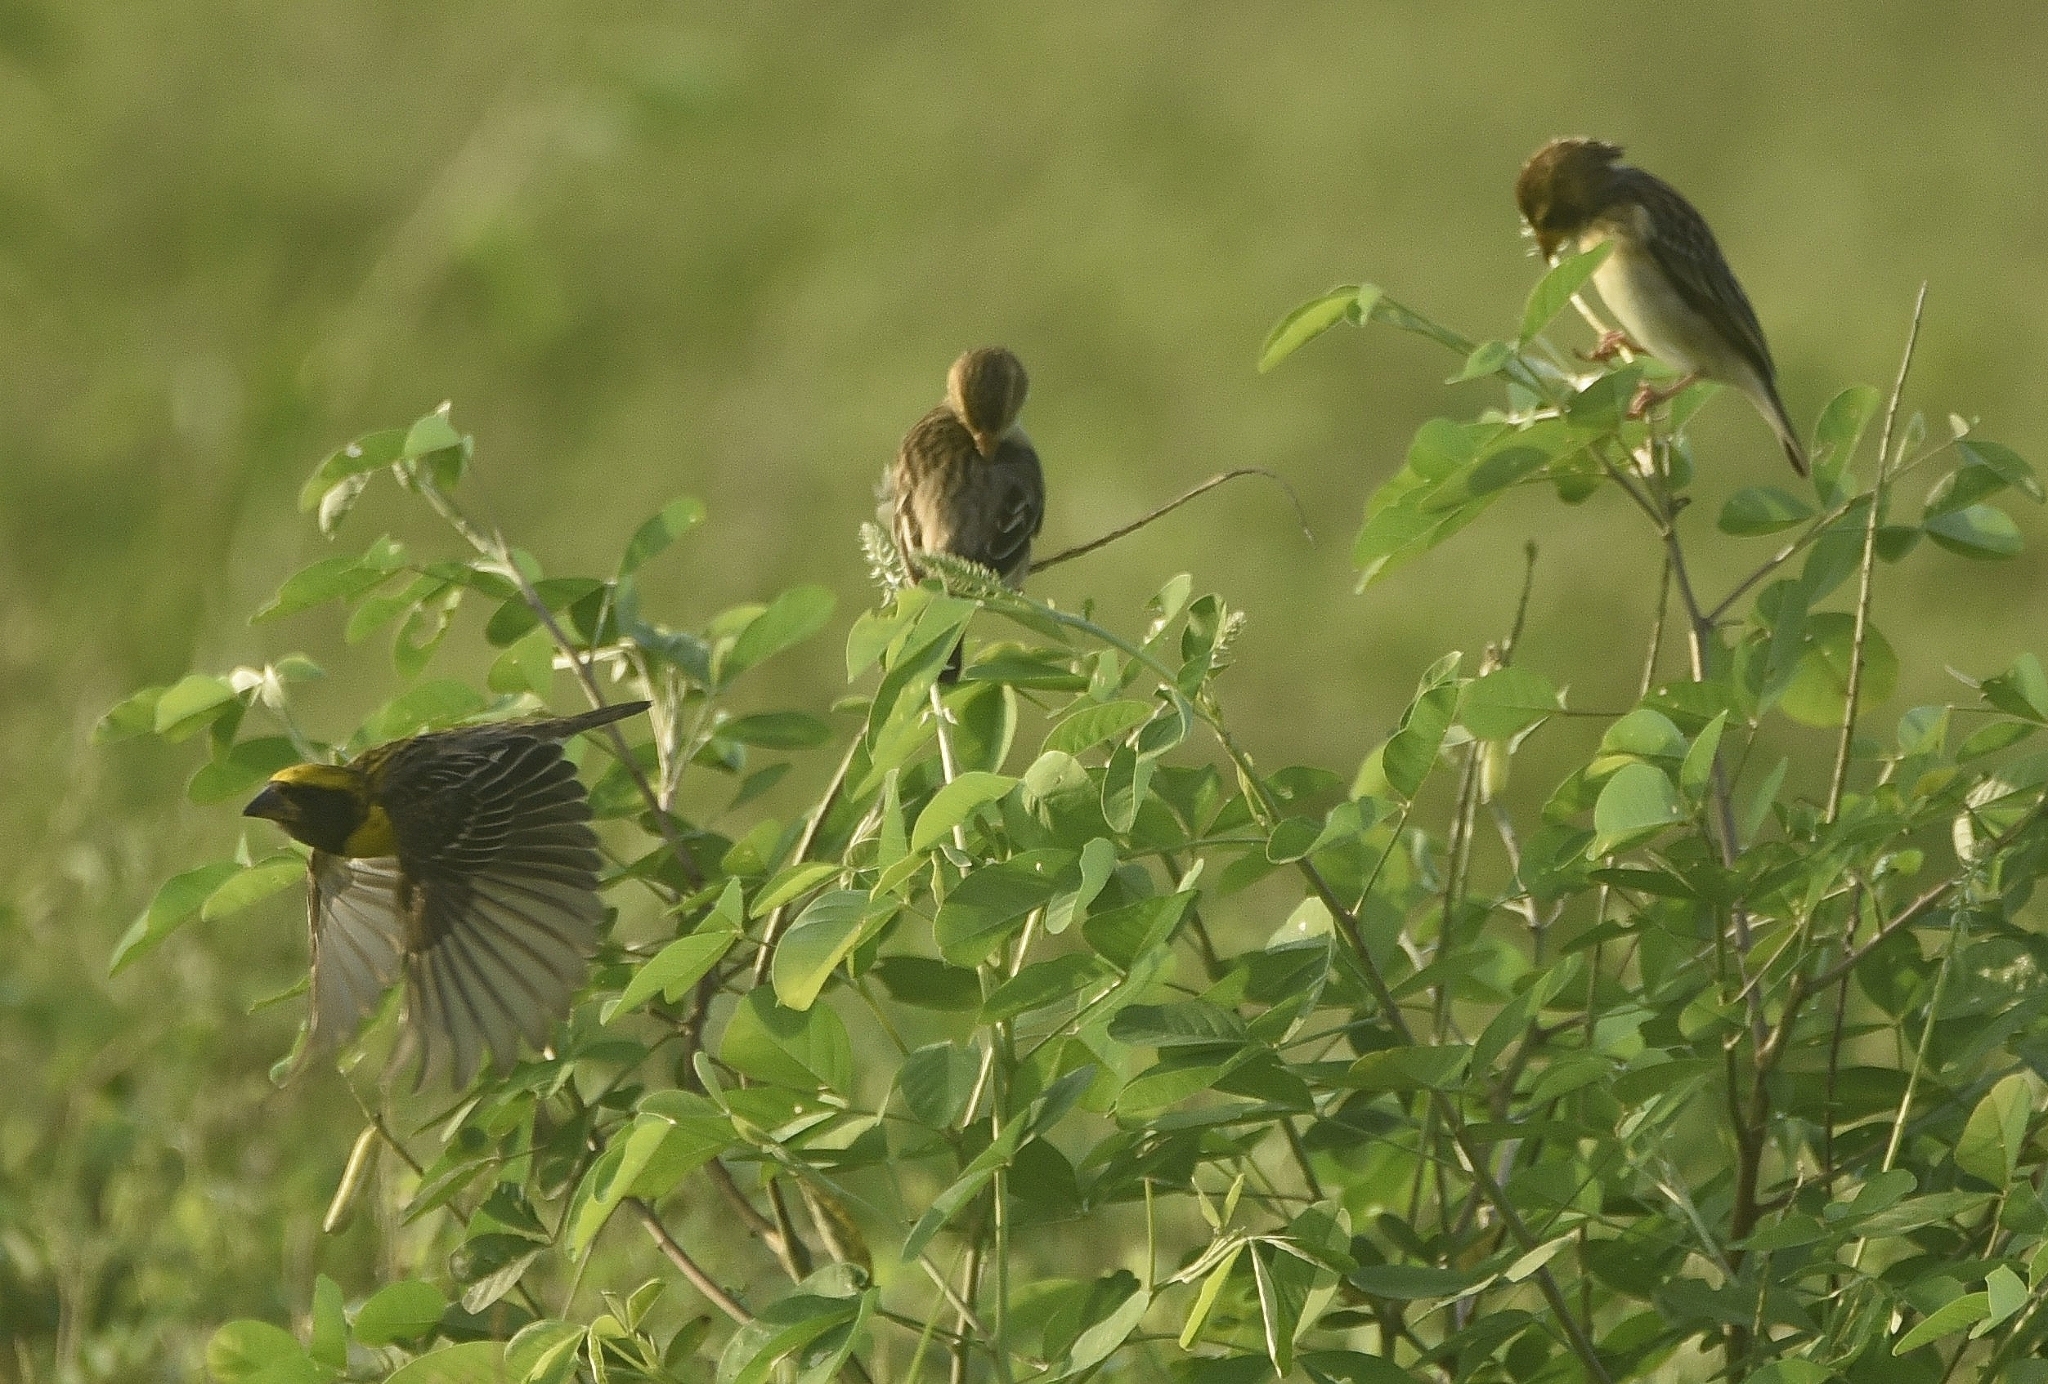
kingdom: Animalia
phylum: Chordata
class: Aves
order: Passeriformes
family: Ploceidae
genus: Ploceus
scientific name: Ploceus philippinus
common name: Baya weaver
